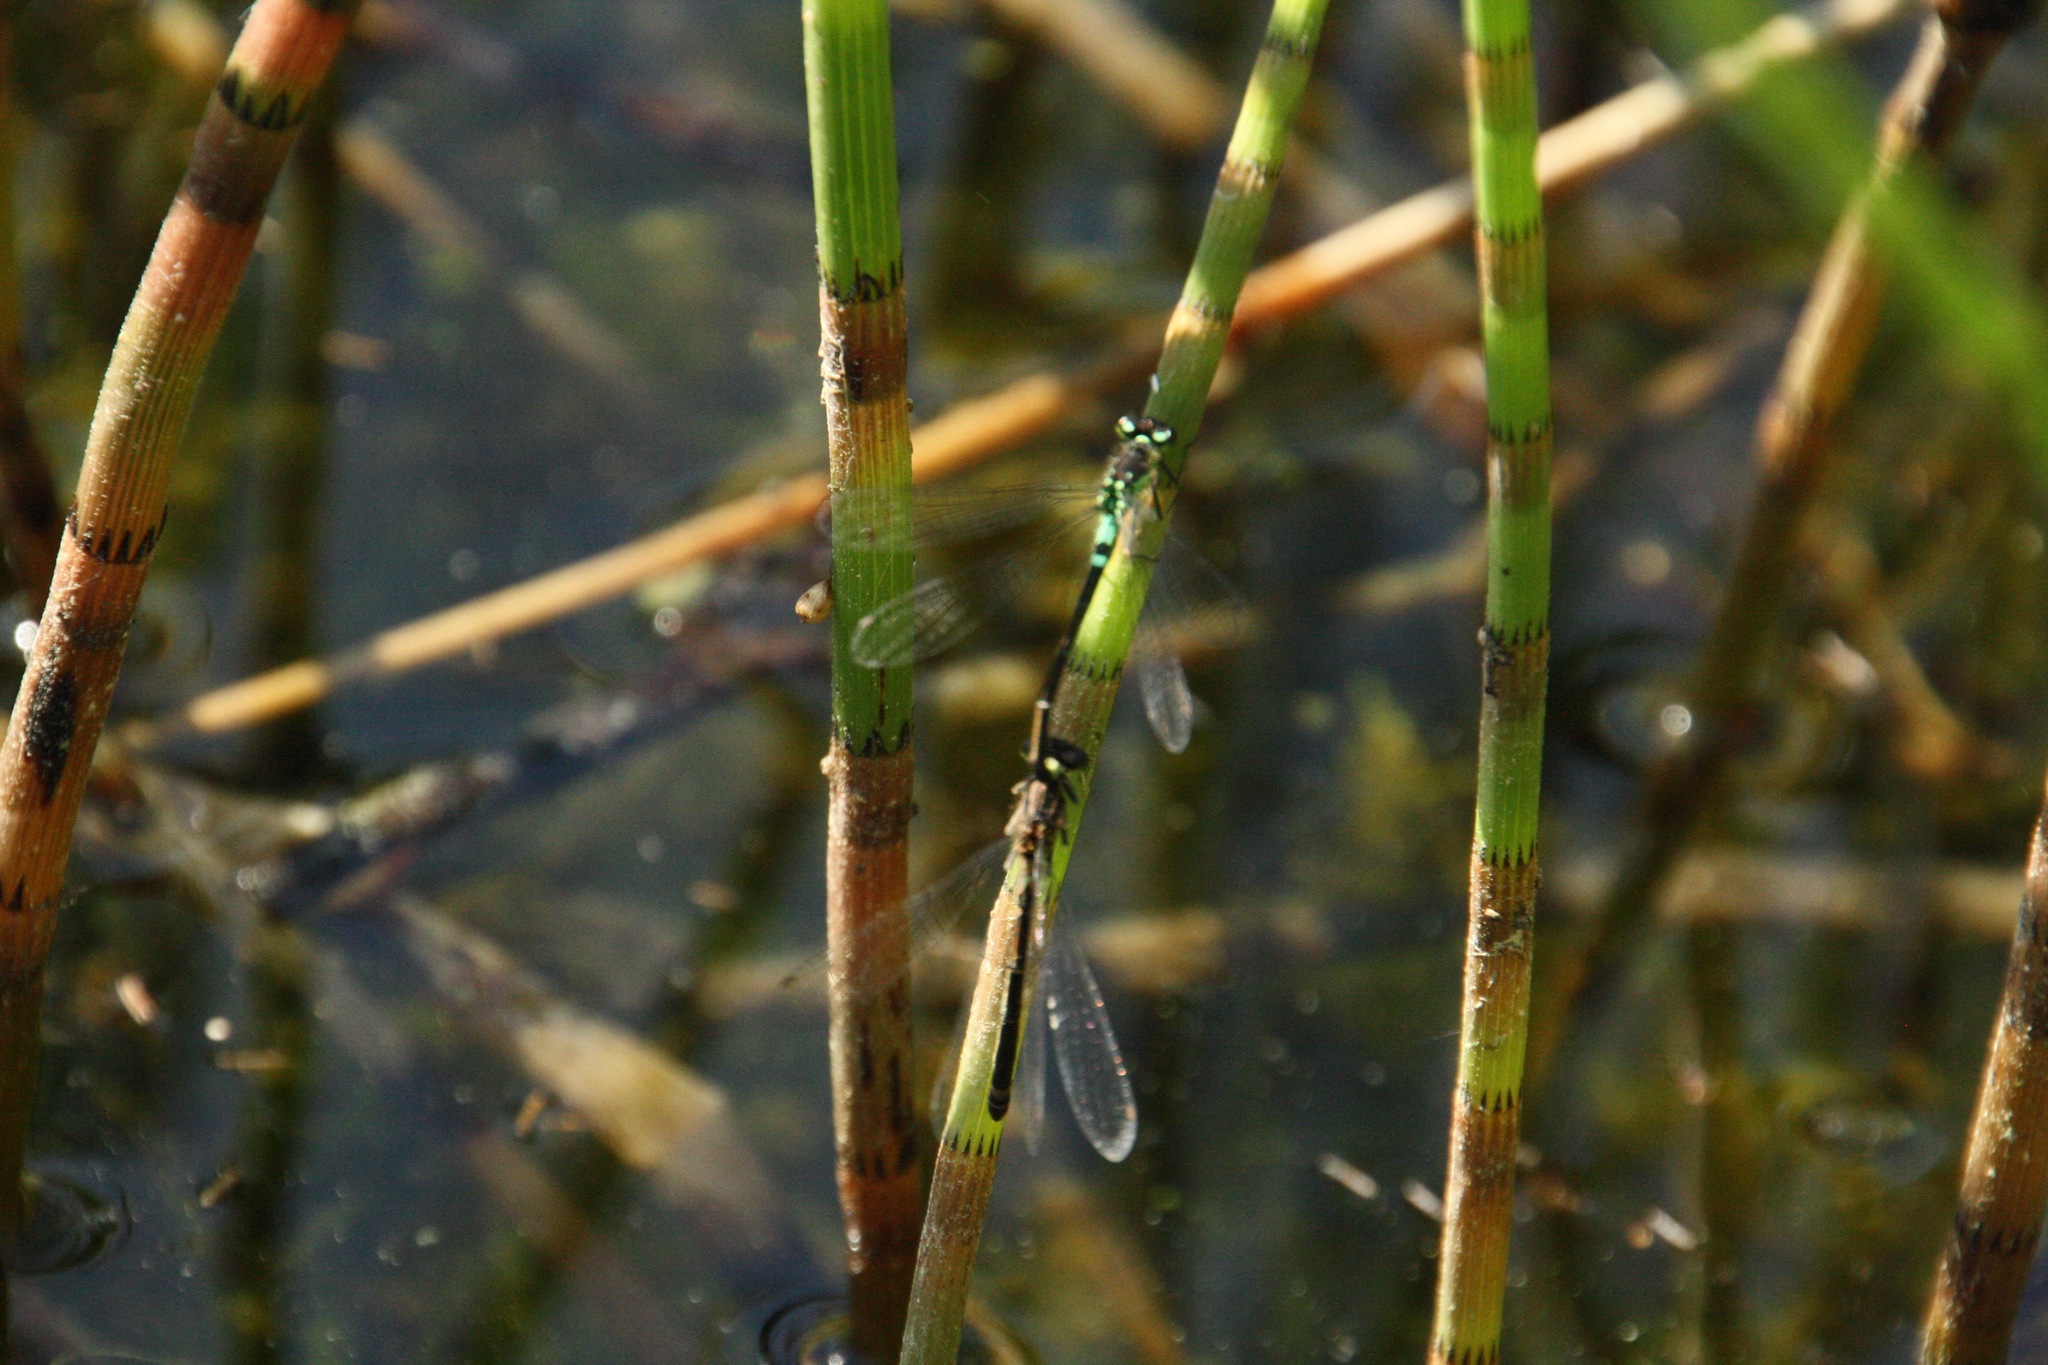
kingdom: Animalia
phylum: Arthropoda
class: Insecta
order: Odonata
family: Coenagrionidae
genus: Coenagrion
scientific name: Coenagrion armatum
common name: Dark bluet
